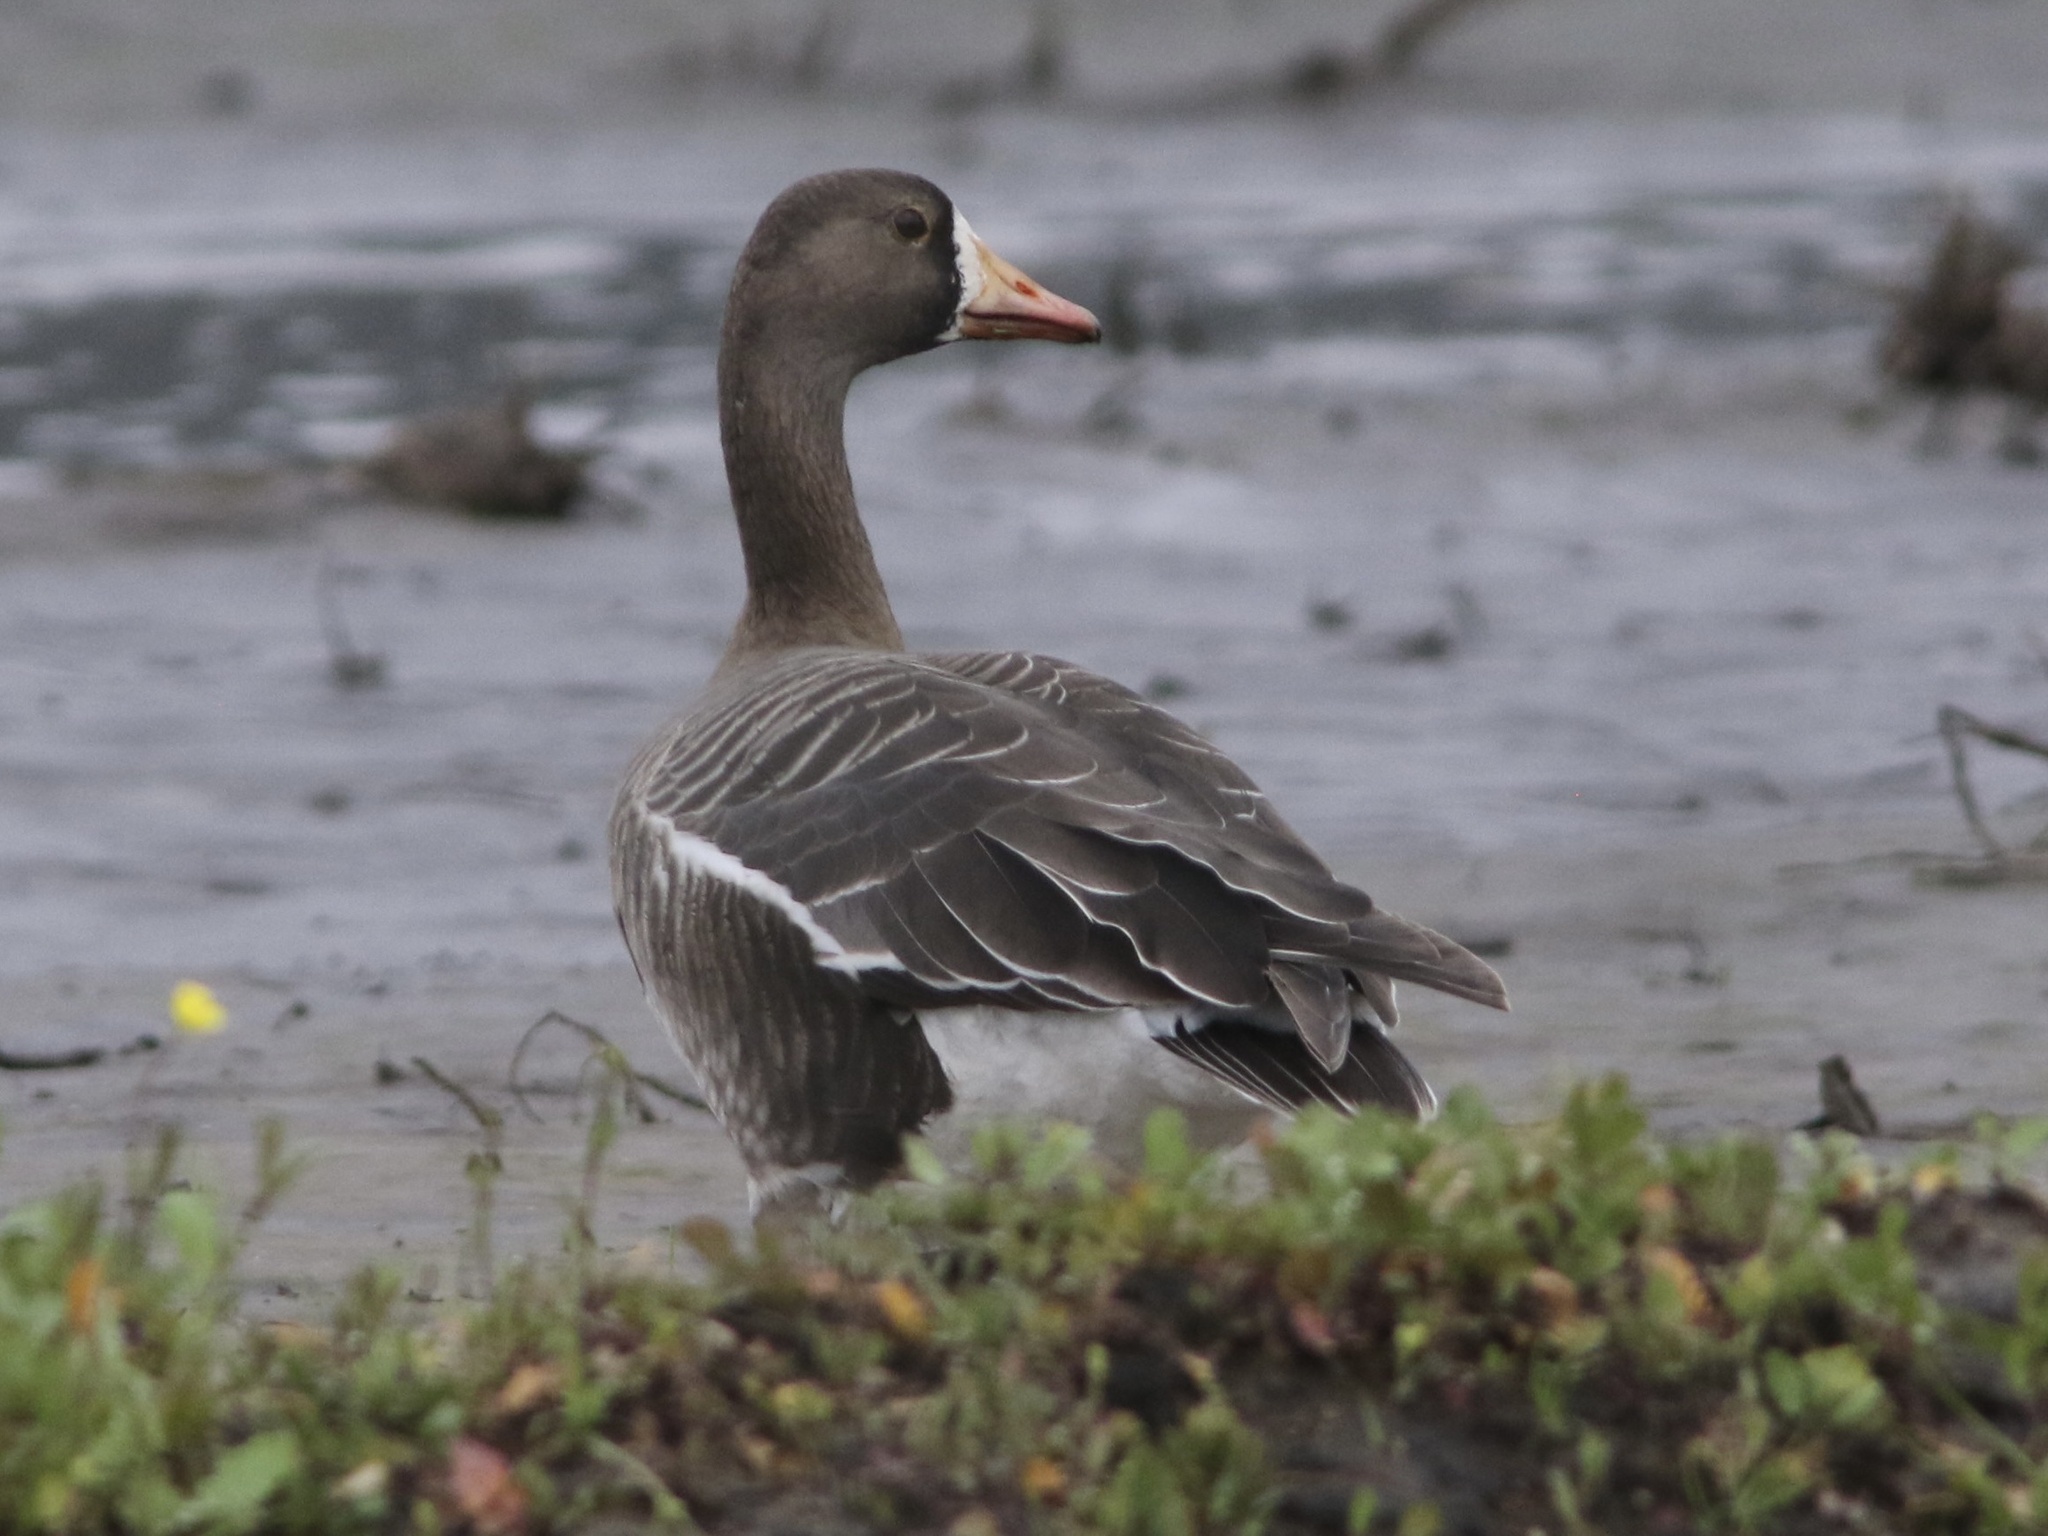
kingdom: Animalia
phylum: Chordata
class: Aves
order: Anseriformes
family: Anatidae
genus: Anser
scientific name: Anser albifrons
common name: Greater white-fronted goose
